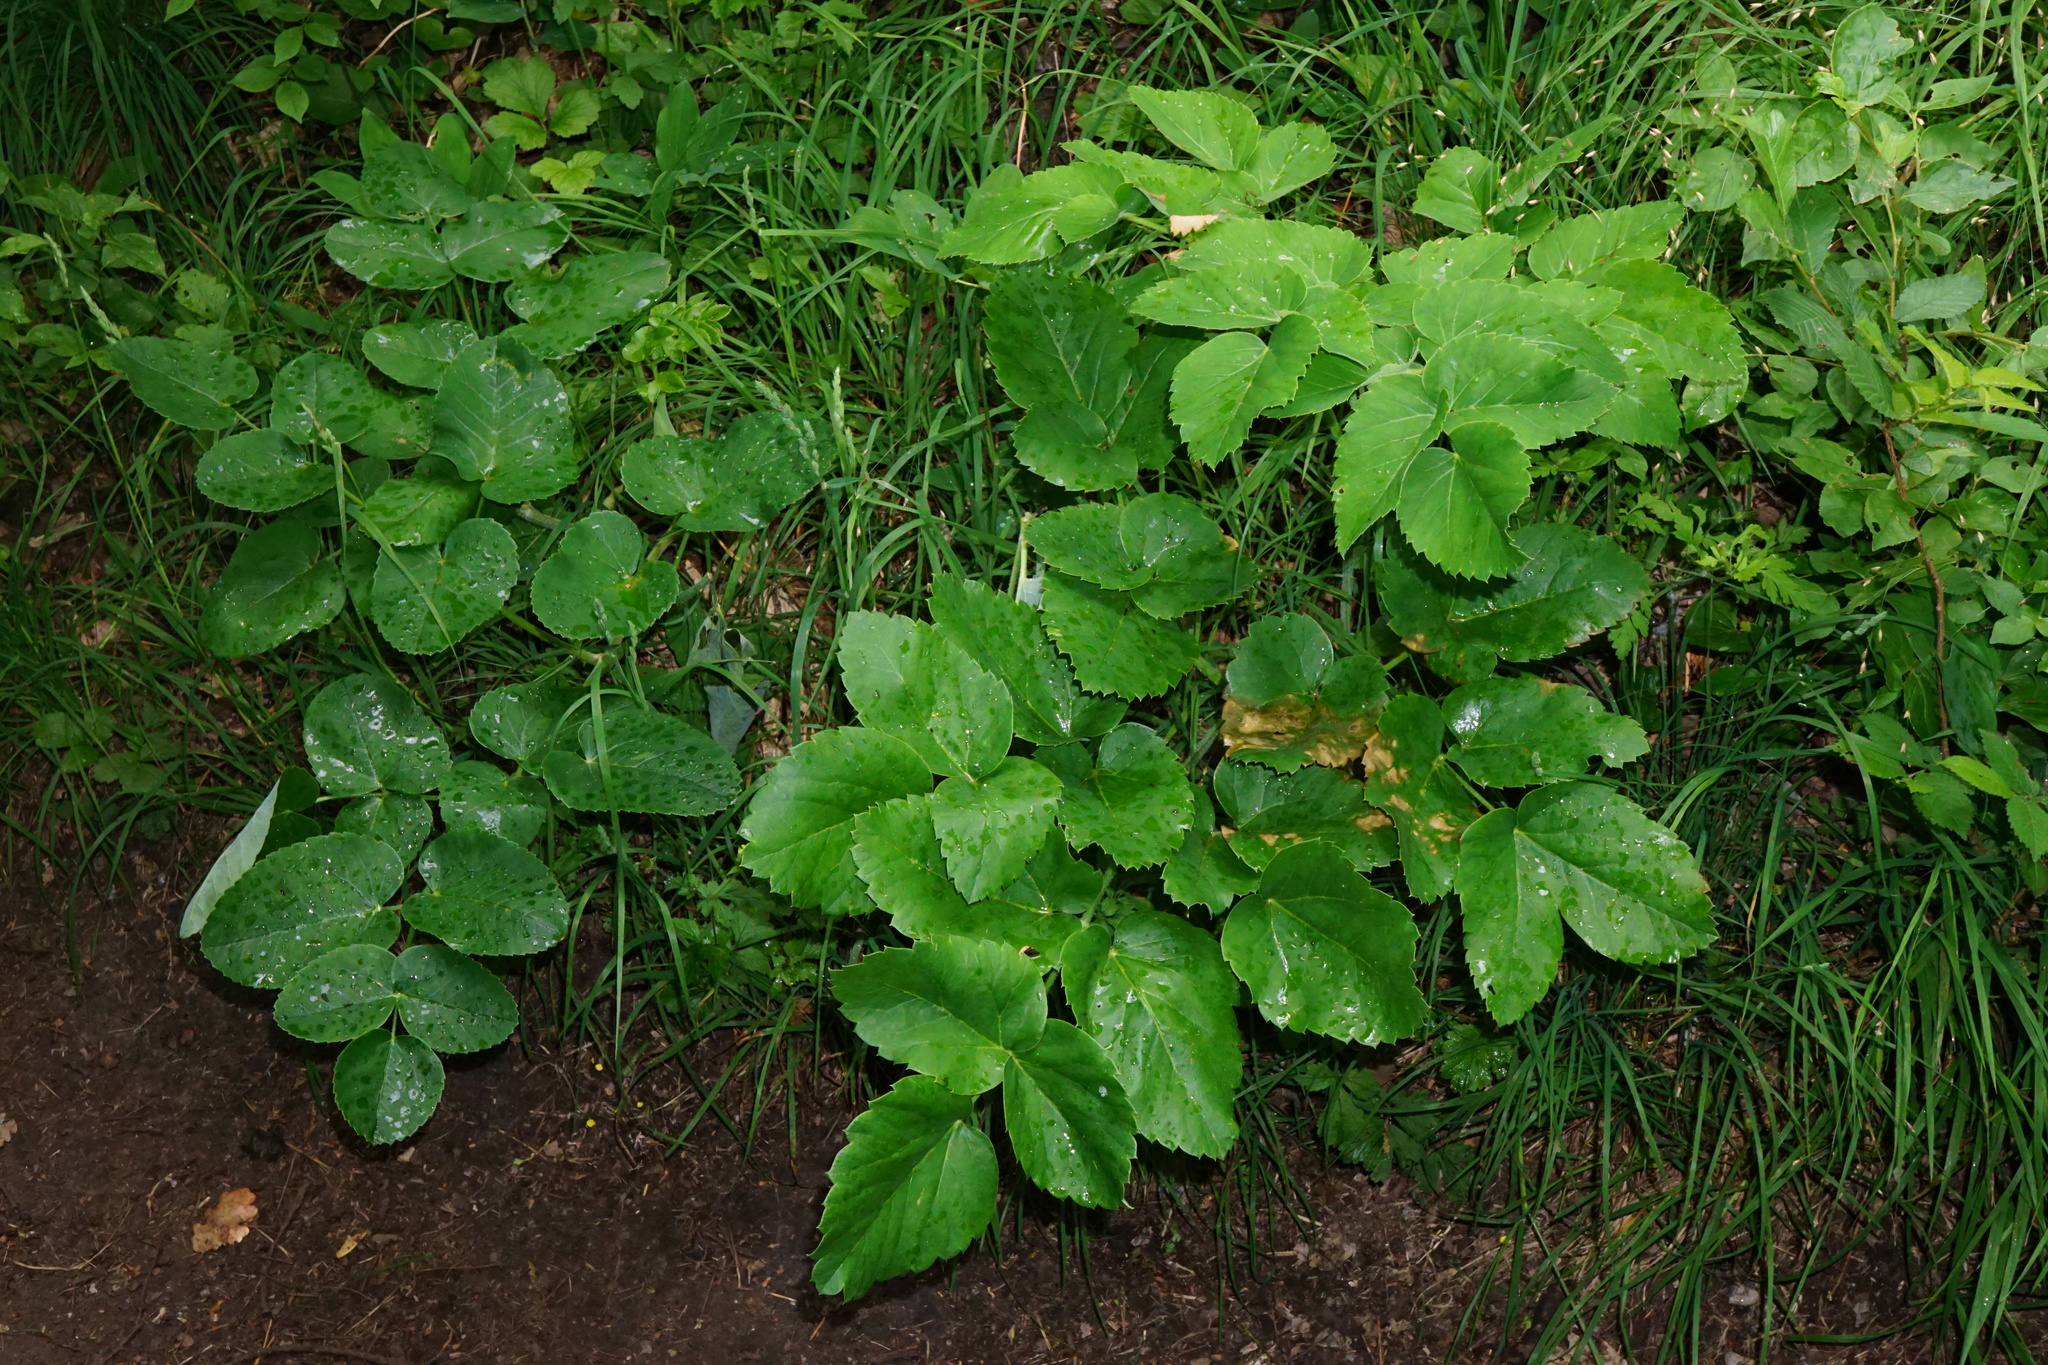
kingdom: Plantae
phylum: Tracheophyta
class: Magnoliopsida
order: Apiales
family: Apiaceae
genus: Laserpitium
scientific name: Laserpitium latifolium
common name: Broadleaf sermountain
